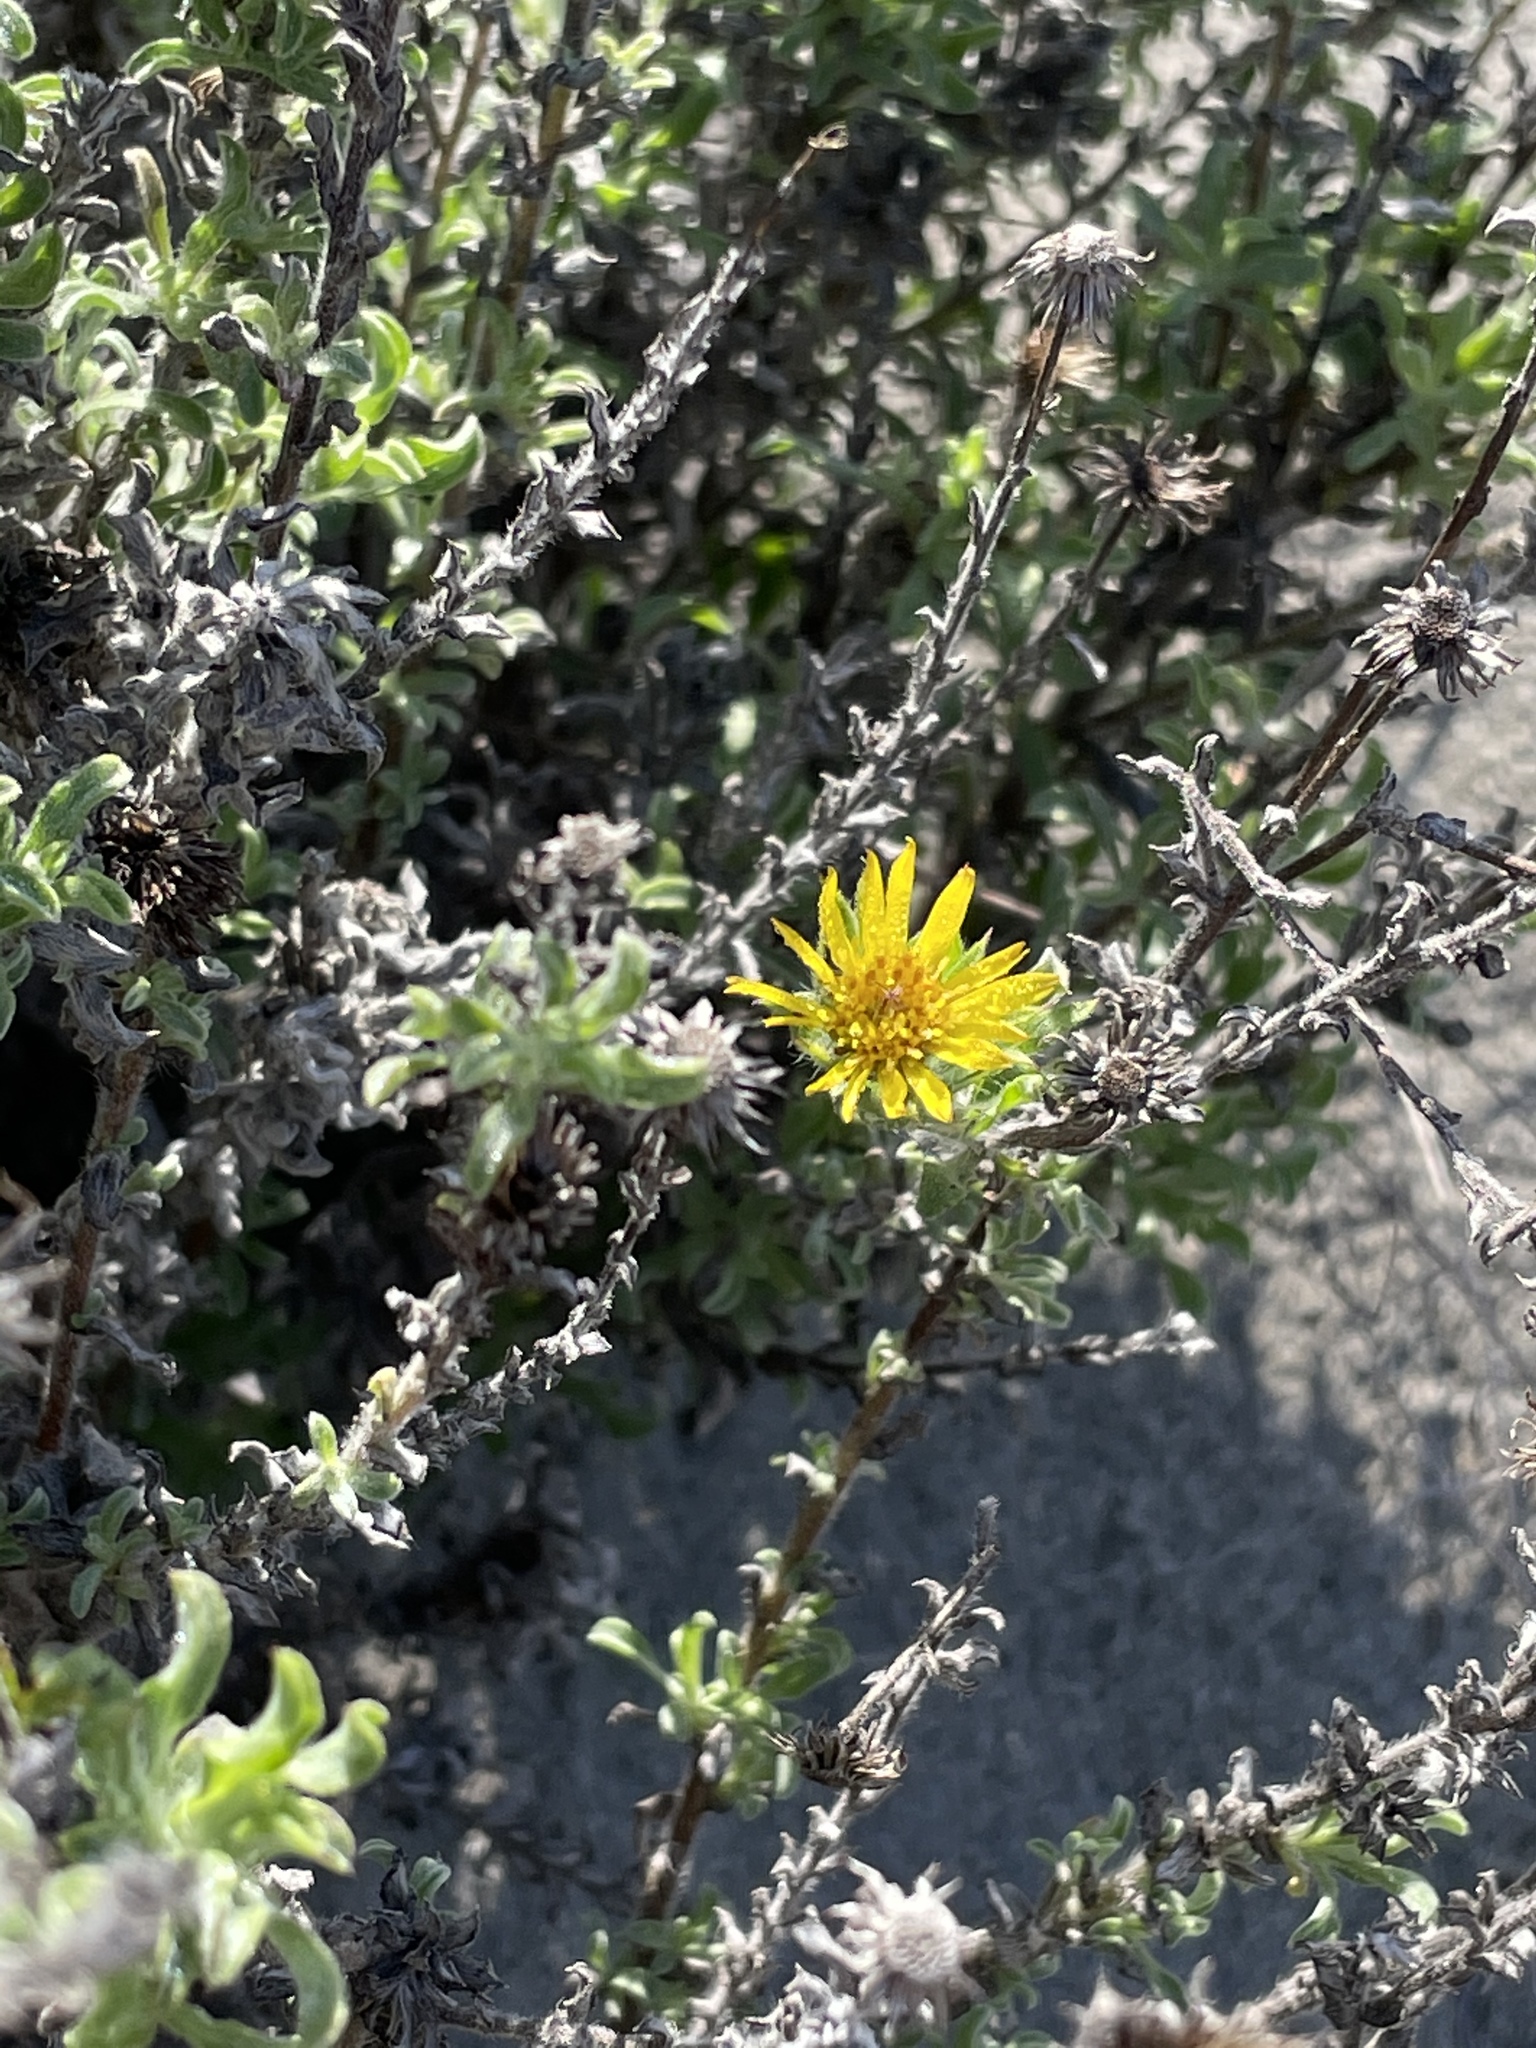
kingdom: Plantae
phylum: Tracheophyta
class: Magnoliopsida
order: Asterales
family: Asteraceae
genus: Heterotheca
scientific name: Heterotheca sessiliflora
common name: Sessile-flower golden-aster
